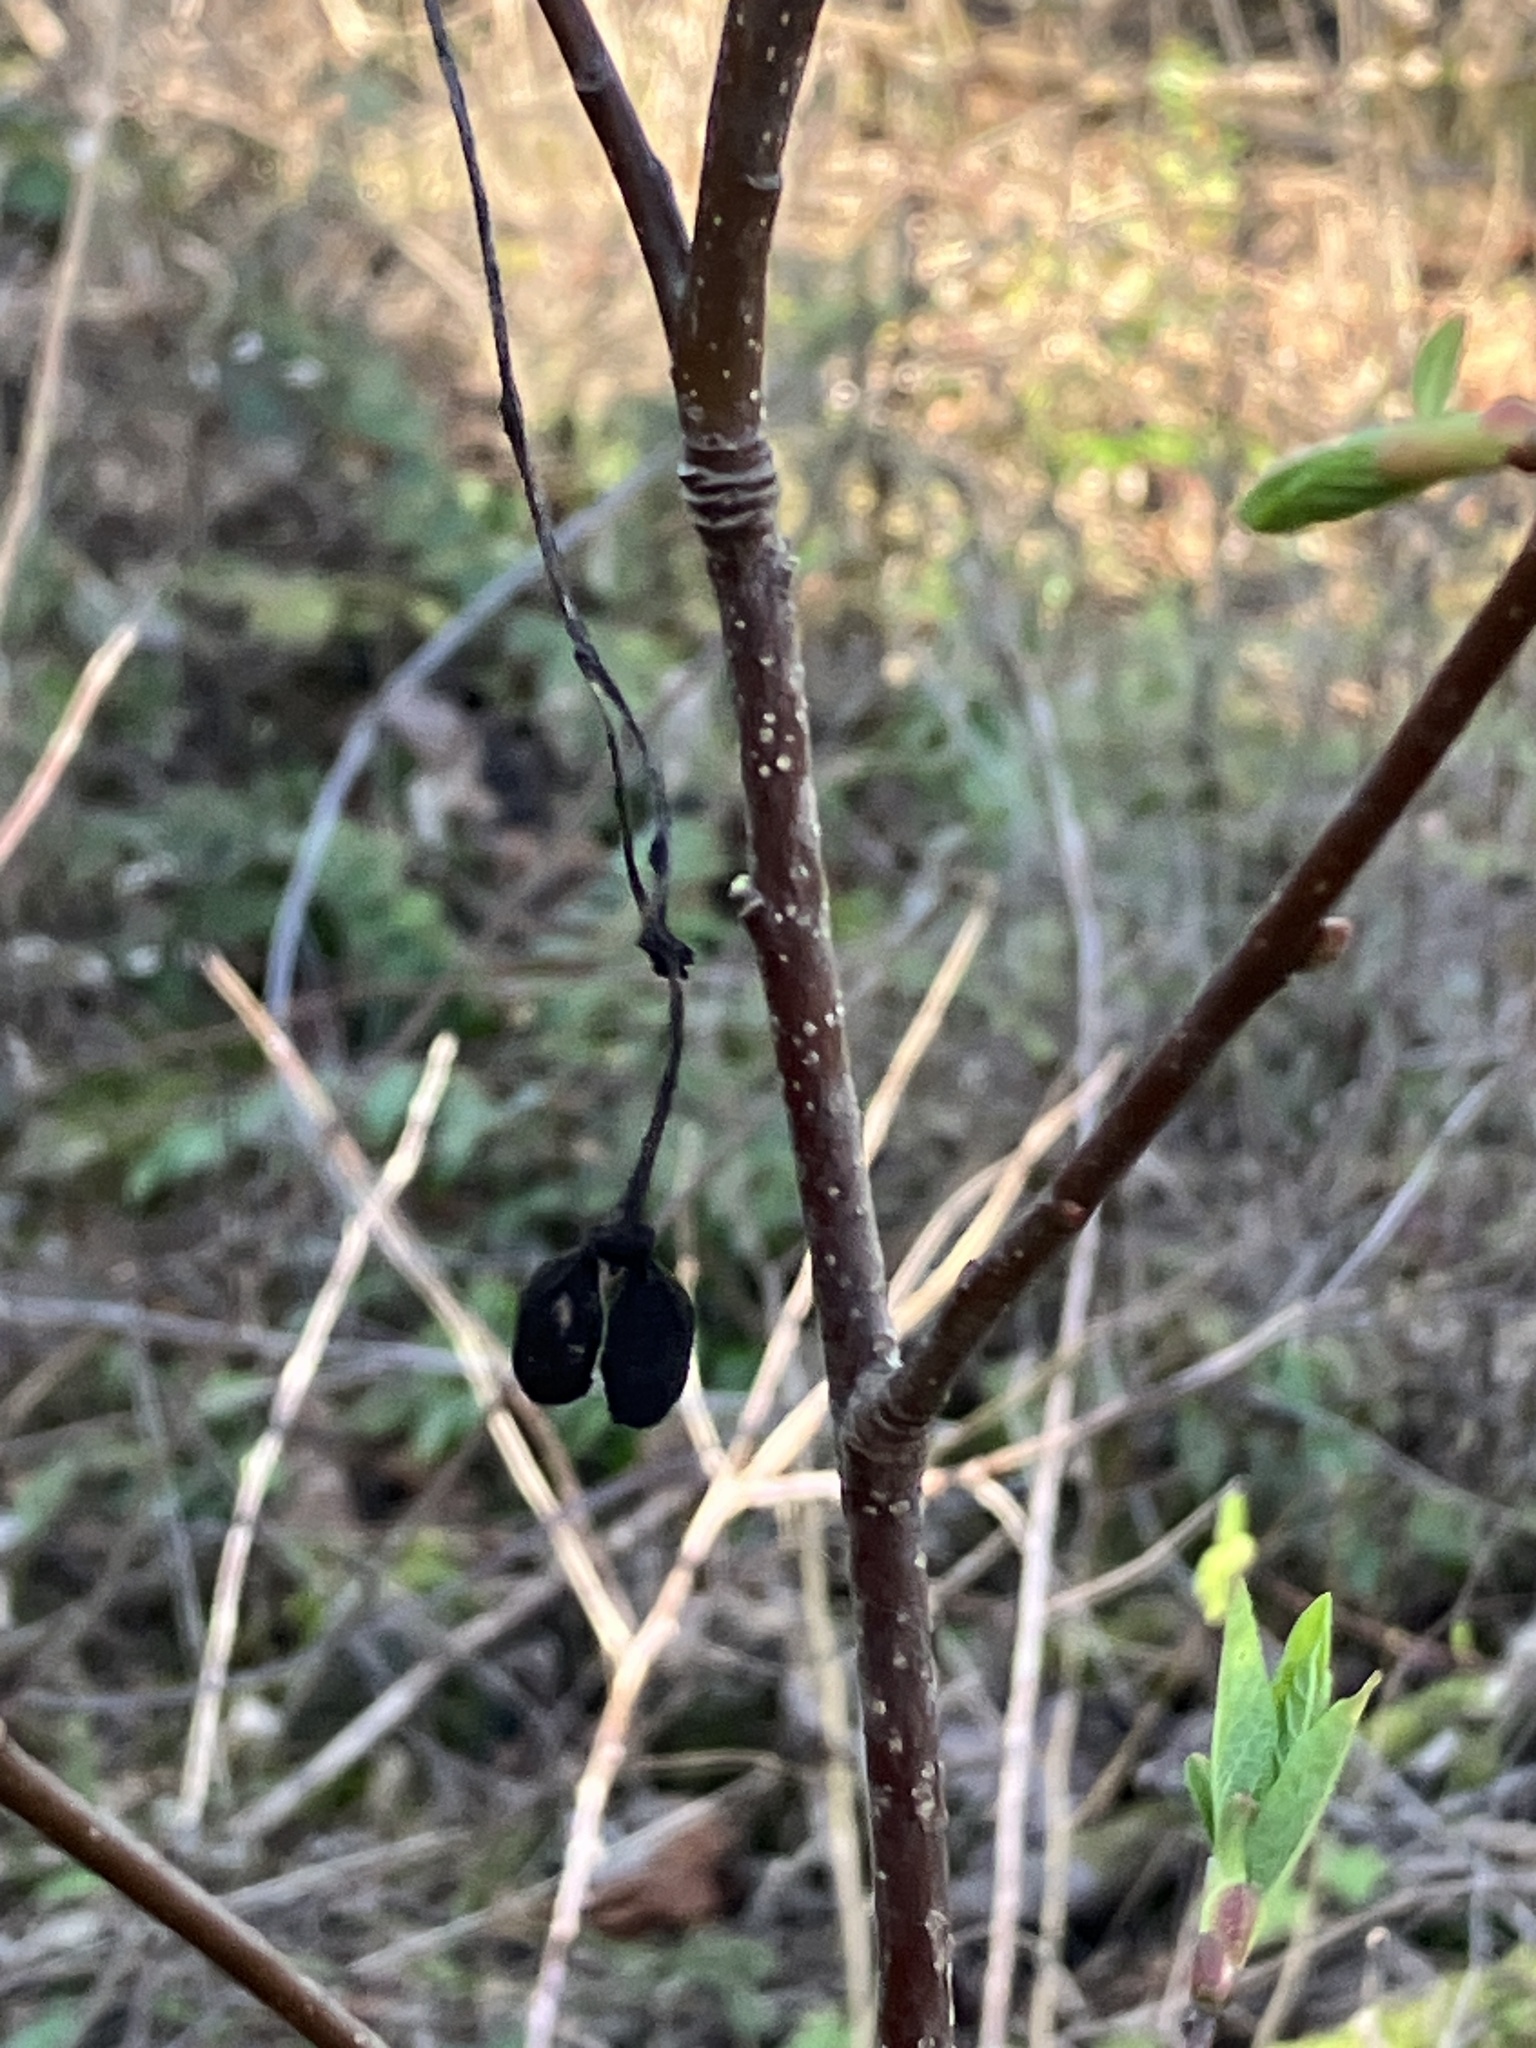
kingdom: Plantae
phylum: Tracheophyta
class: Magnoliopsida
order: Rosales
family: Rosaceae
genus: Oemleria
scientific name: Oemleria cerasiformis
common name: Osoberry
